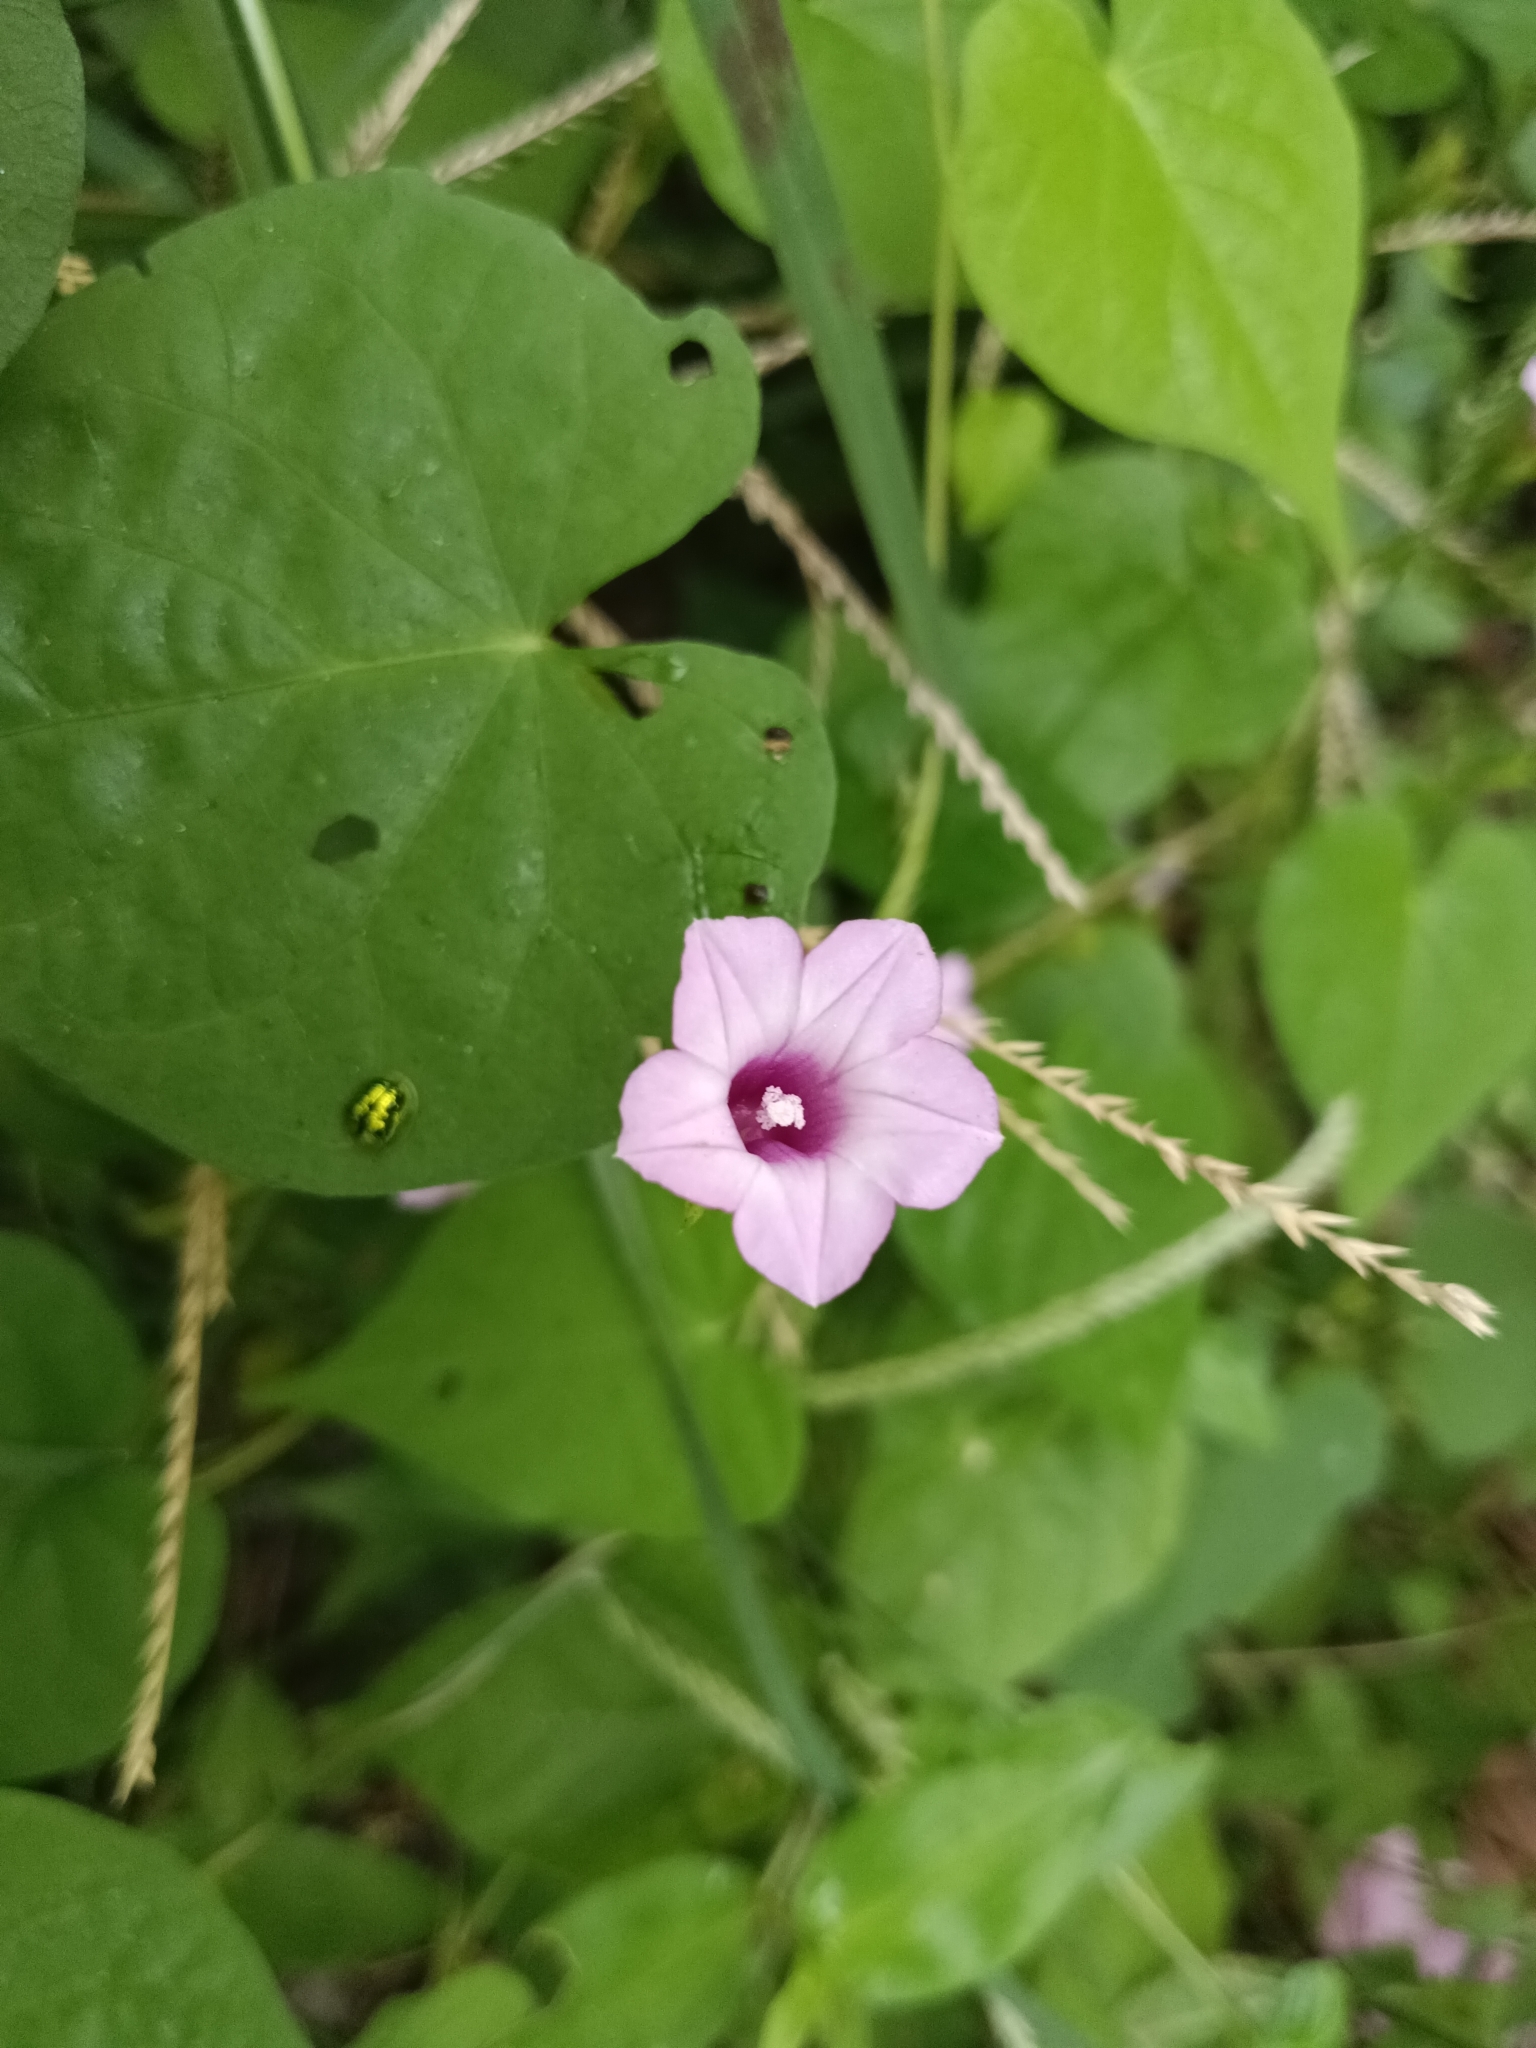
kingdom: Plantae
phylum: Tracheophyta
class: Magnoliopsida
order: Solanales
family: Convolvulaceae
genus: Ipomoea
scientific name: Ipomoea triloba
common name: Little-bell
